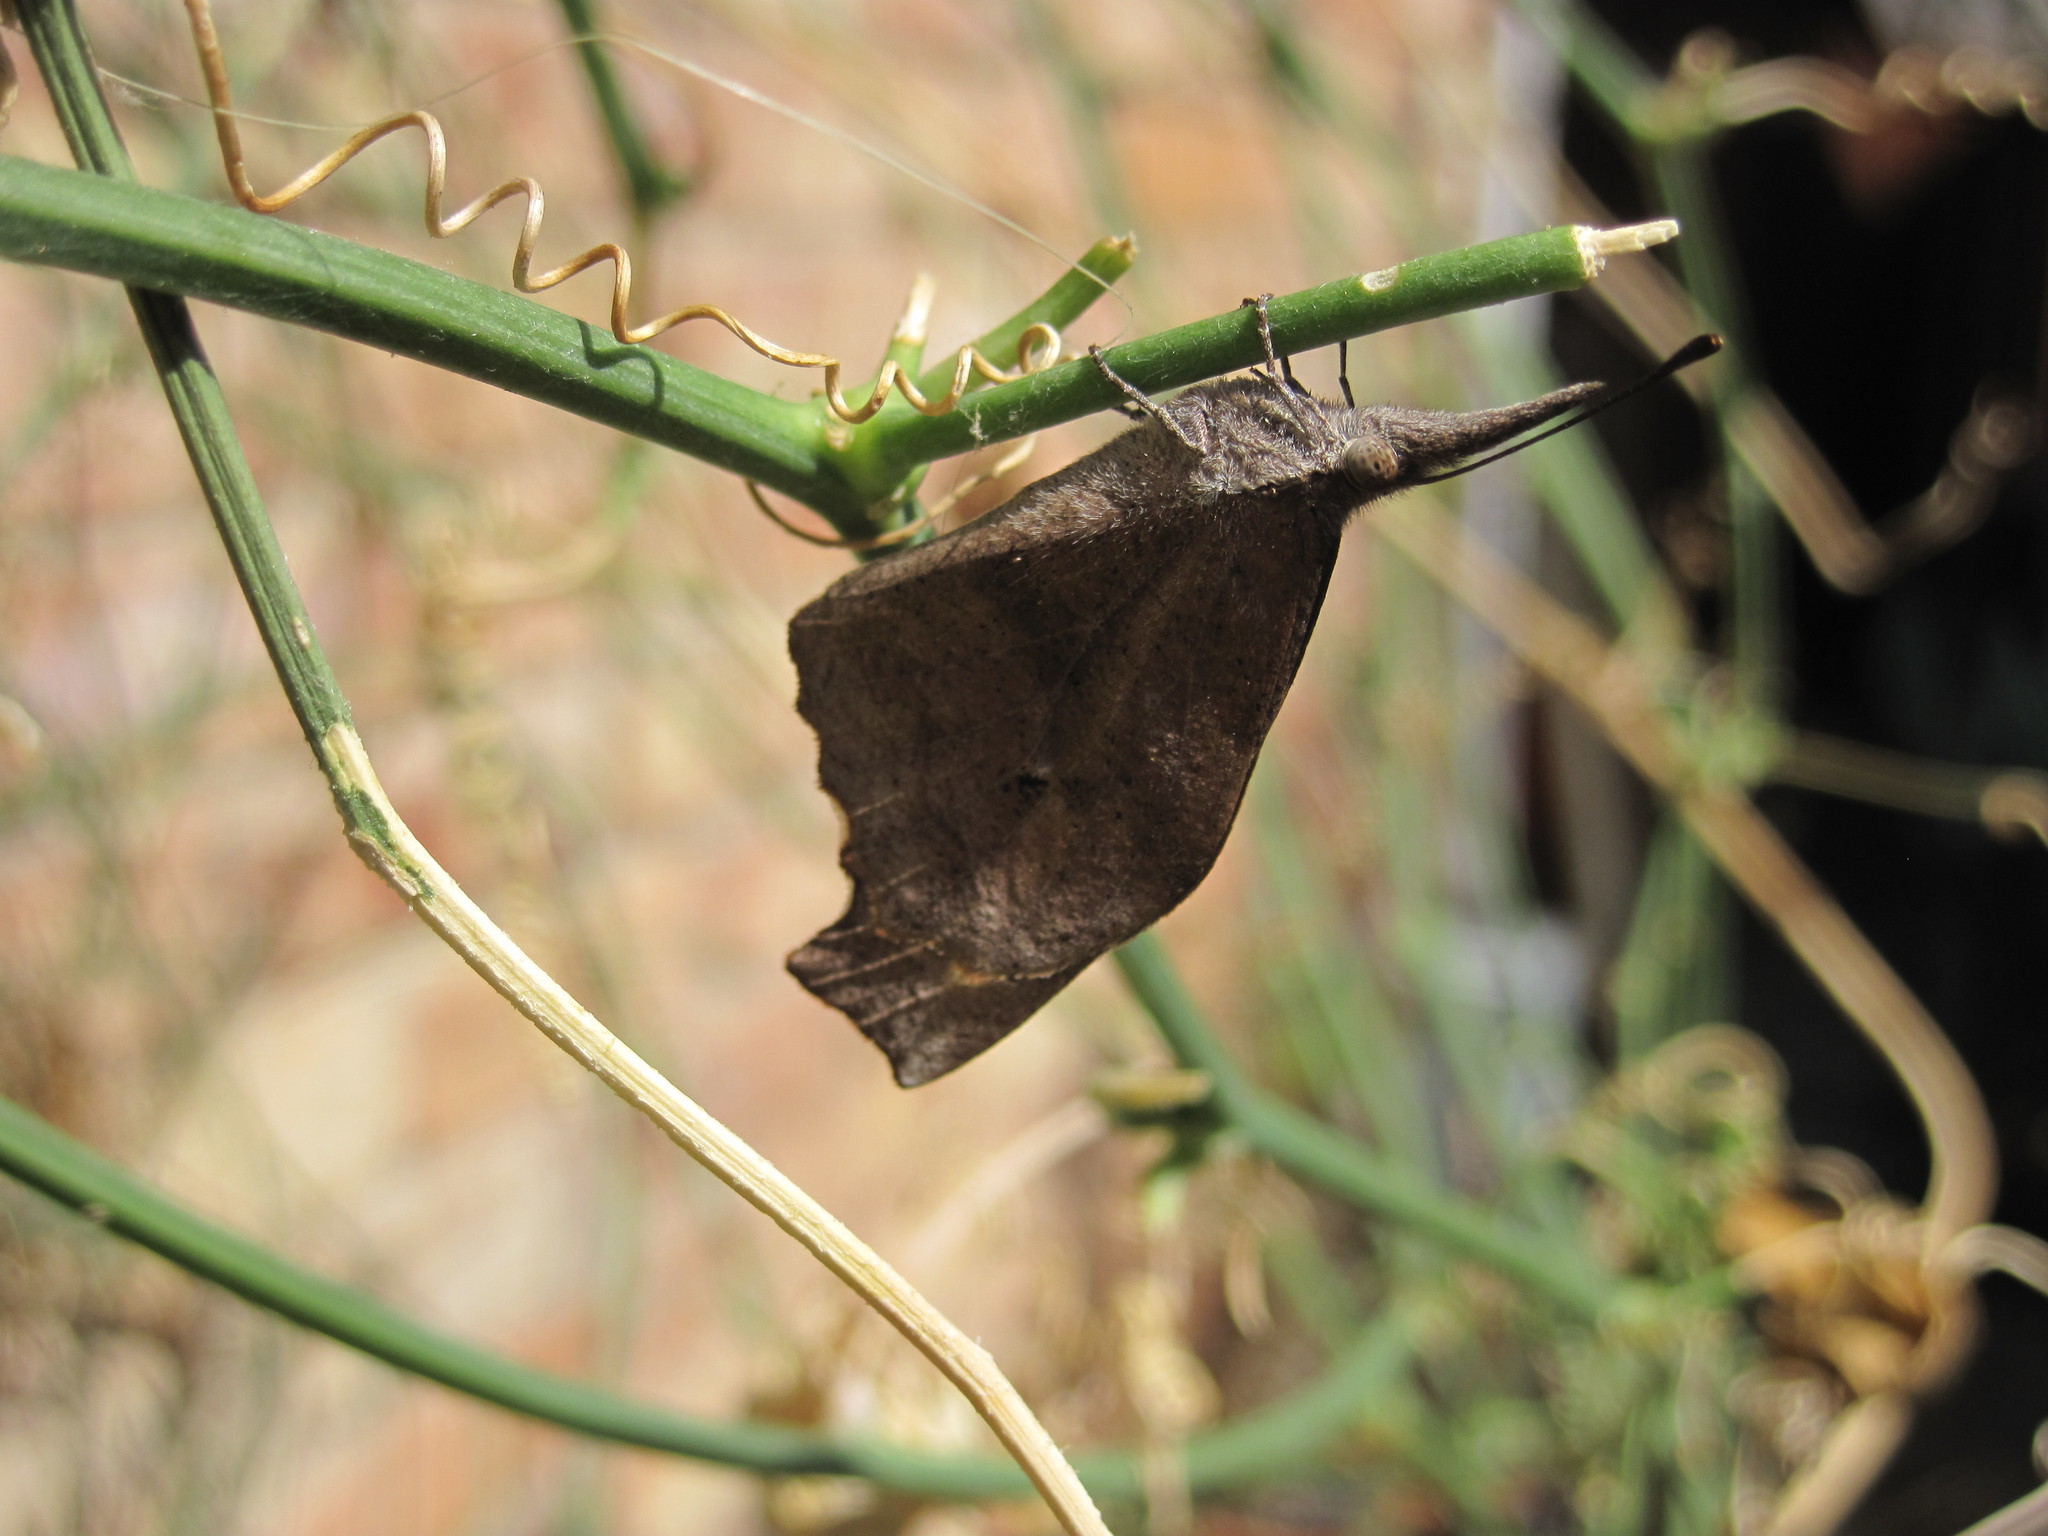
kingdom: Animalia
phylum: Arthropoda
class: Insecta
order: Lepidoptera
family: Nymphalidae
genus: Libytheana
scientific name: Libytheana carinenta
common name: American snout
